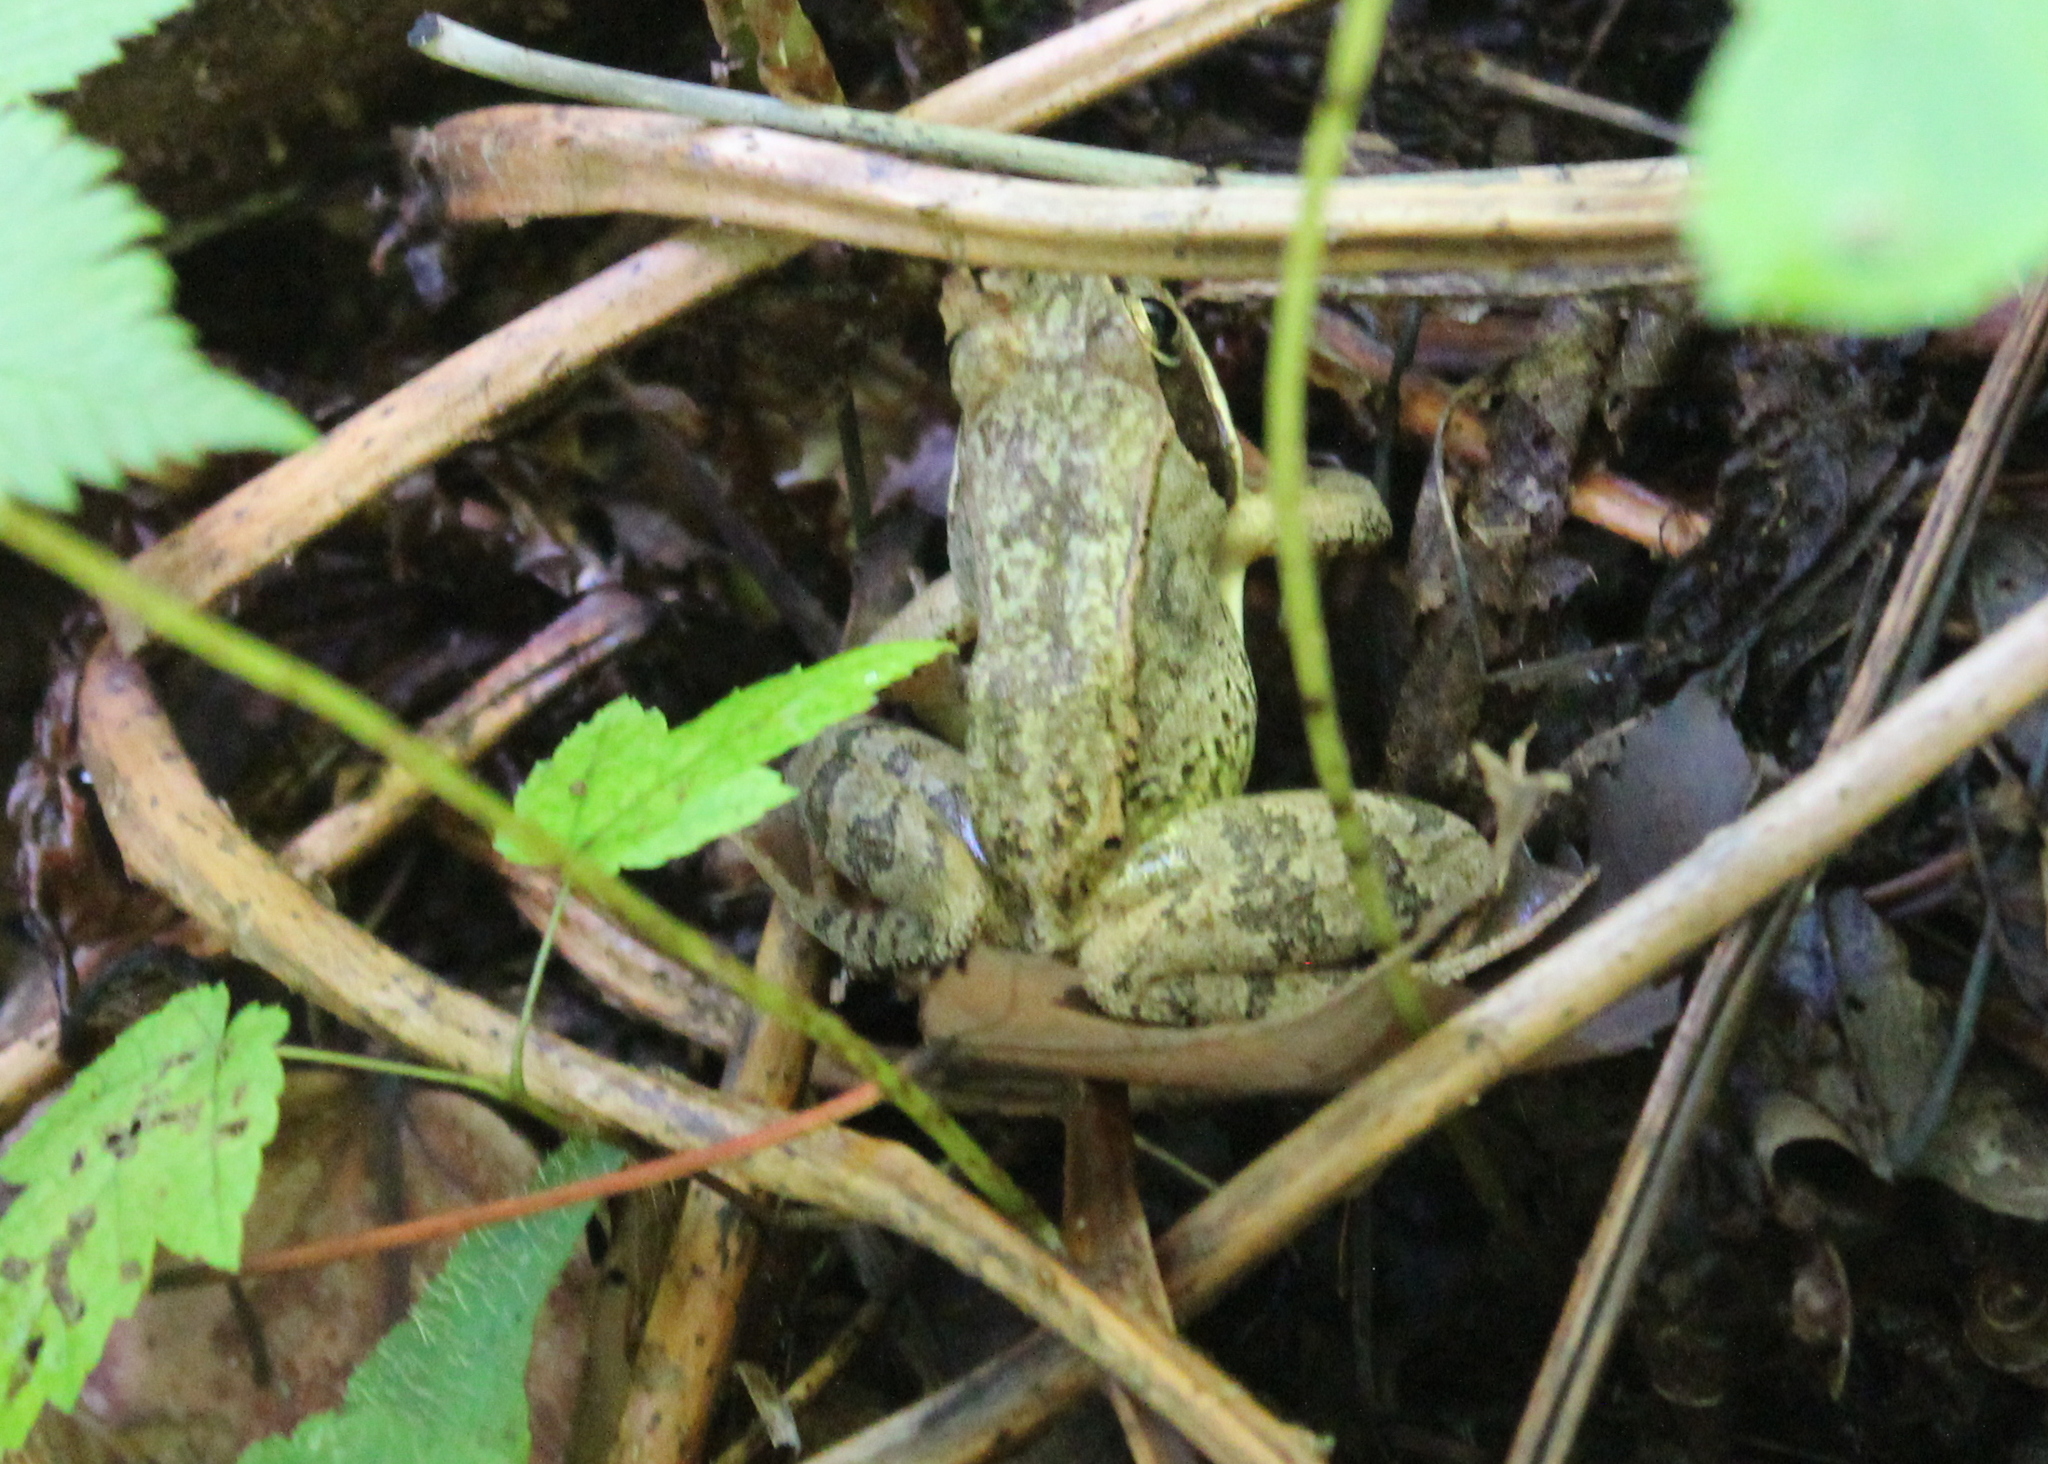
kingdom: Animalia
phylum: Chordata
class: Amphibia
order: Anura
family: Ranidae
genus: Lithobates
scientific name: Lithobates sylvaticus
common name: Wood frog
